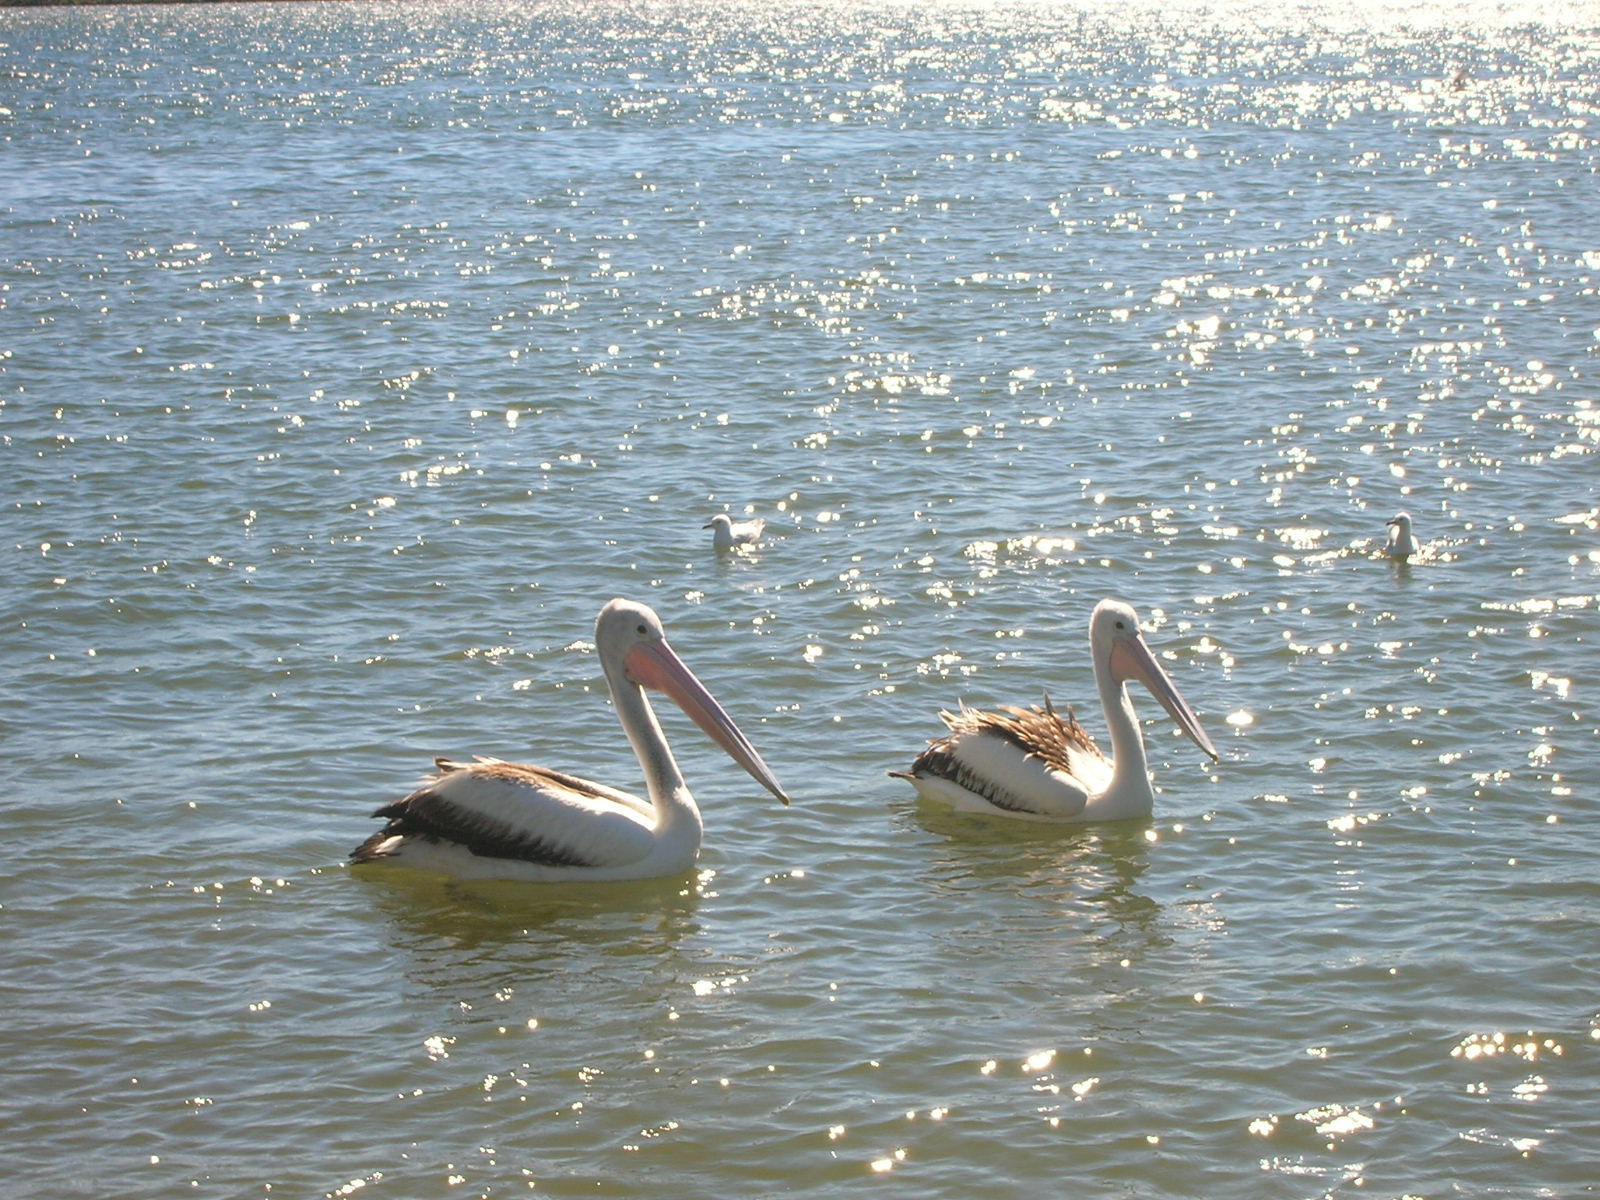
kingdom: Animalia
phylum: Chordata
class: Aves
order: Pelecaniformes
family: Pelecanidae
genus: Pelecanus
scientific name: Pelecanus conspicillatus
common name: Australian pelican
